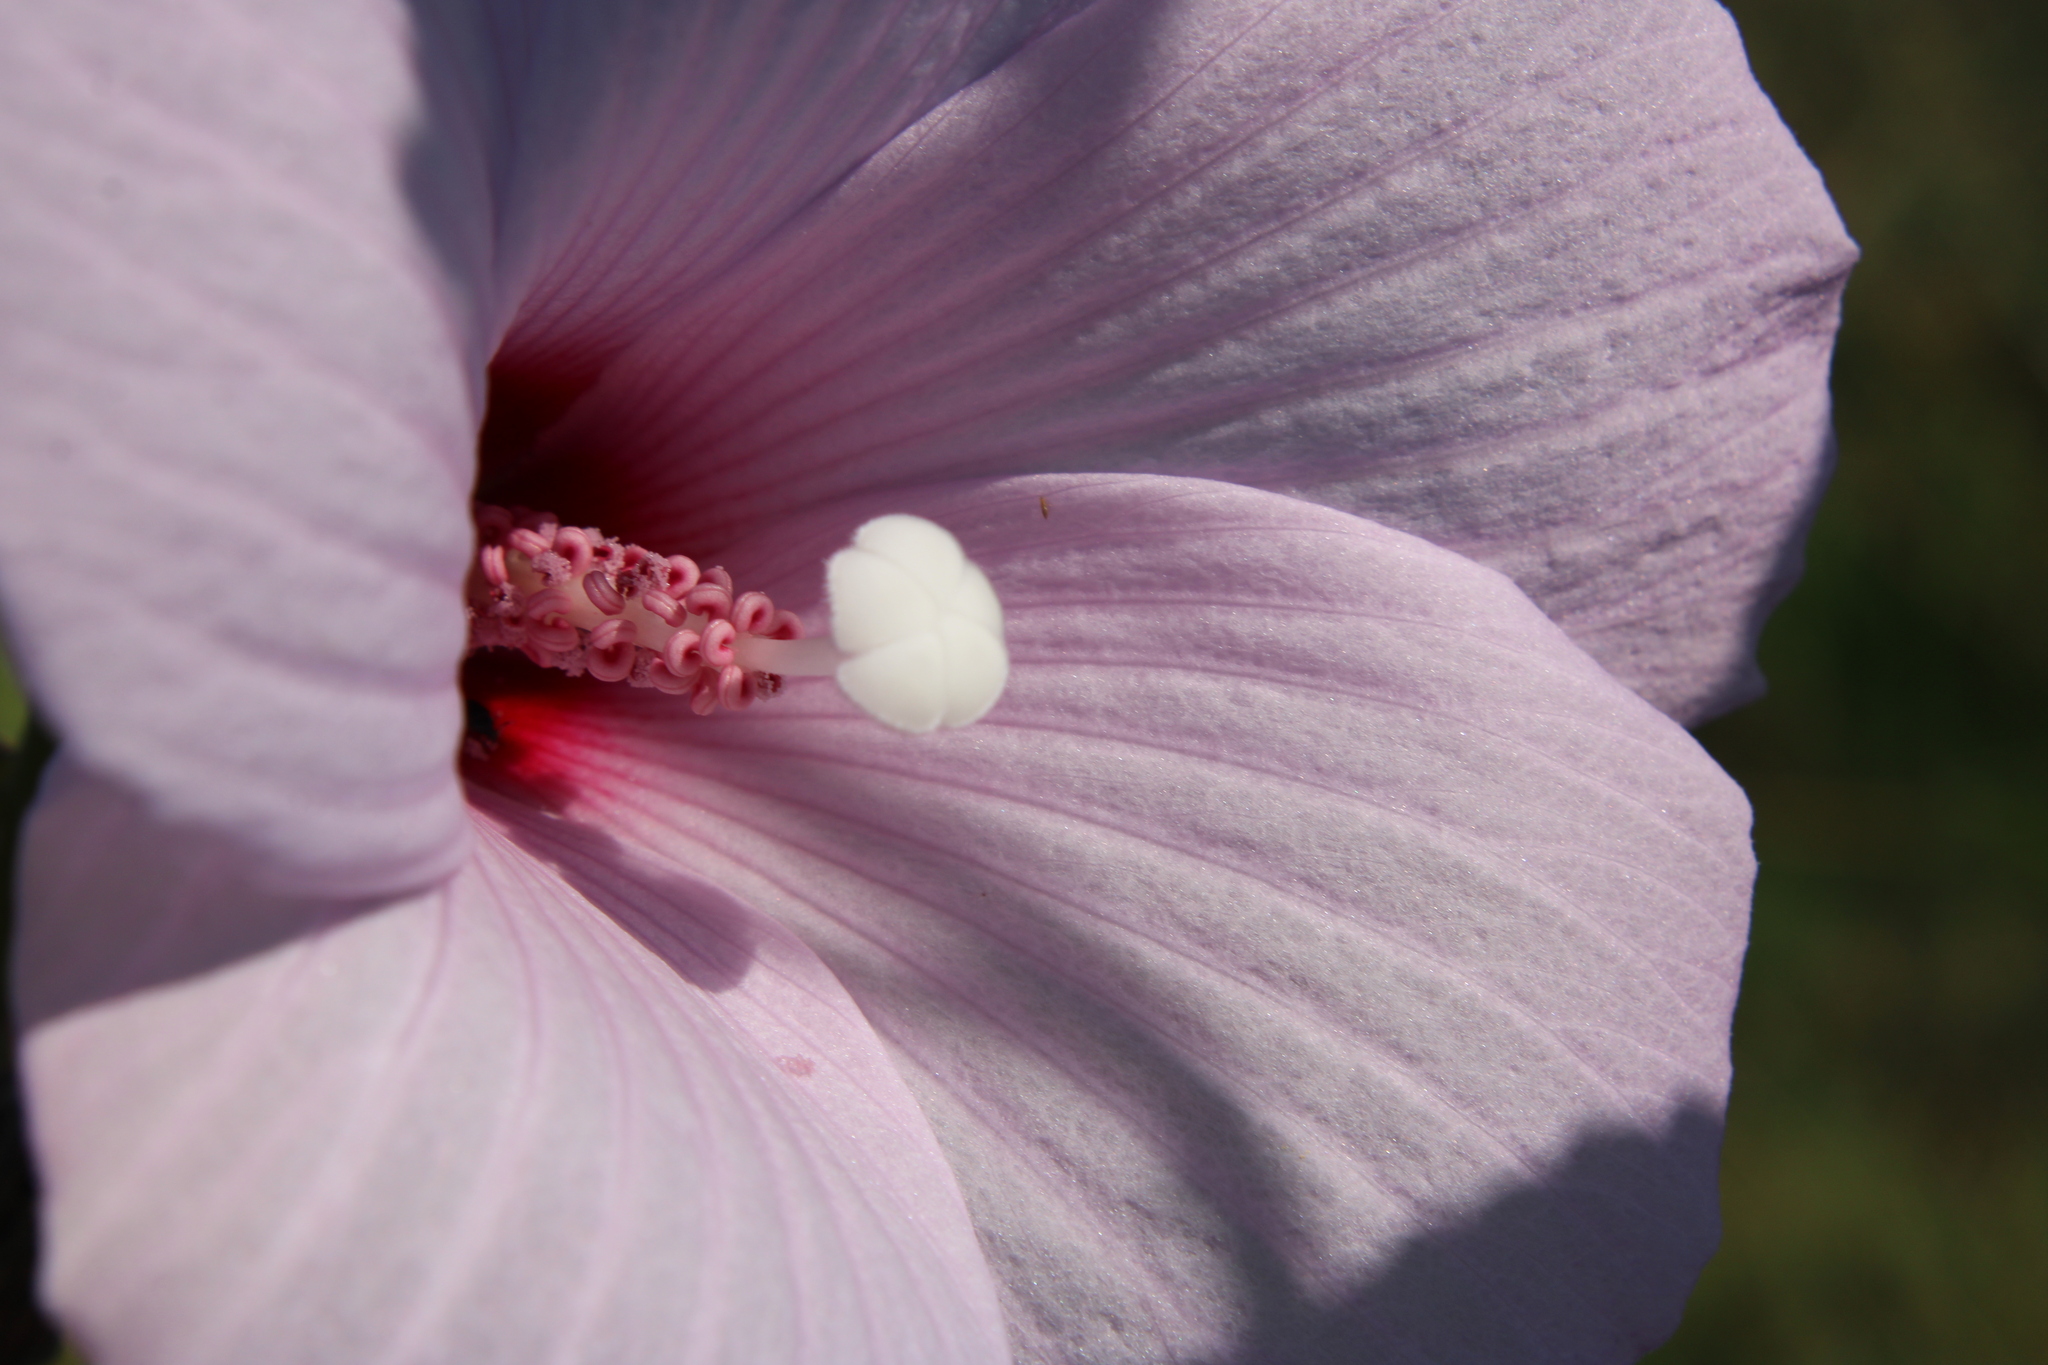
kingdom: Plantae
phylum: Tracheophyta
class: Magnoliopsida
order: Malvales
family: Malvaceae
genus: Hibiscus
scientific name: Hibiscus striatus
